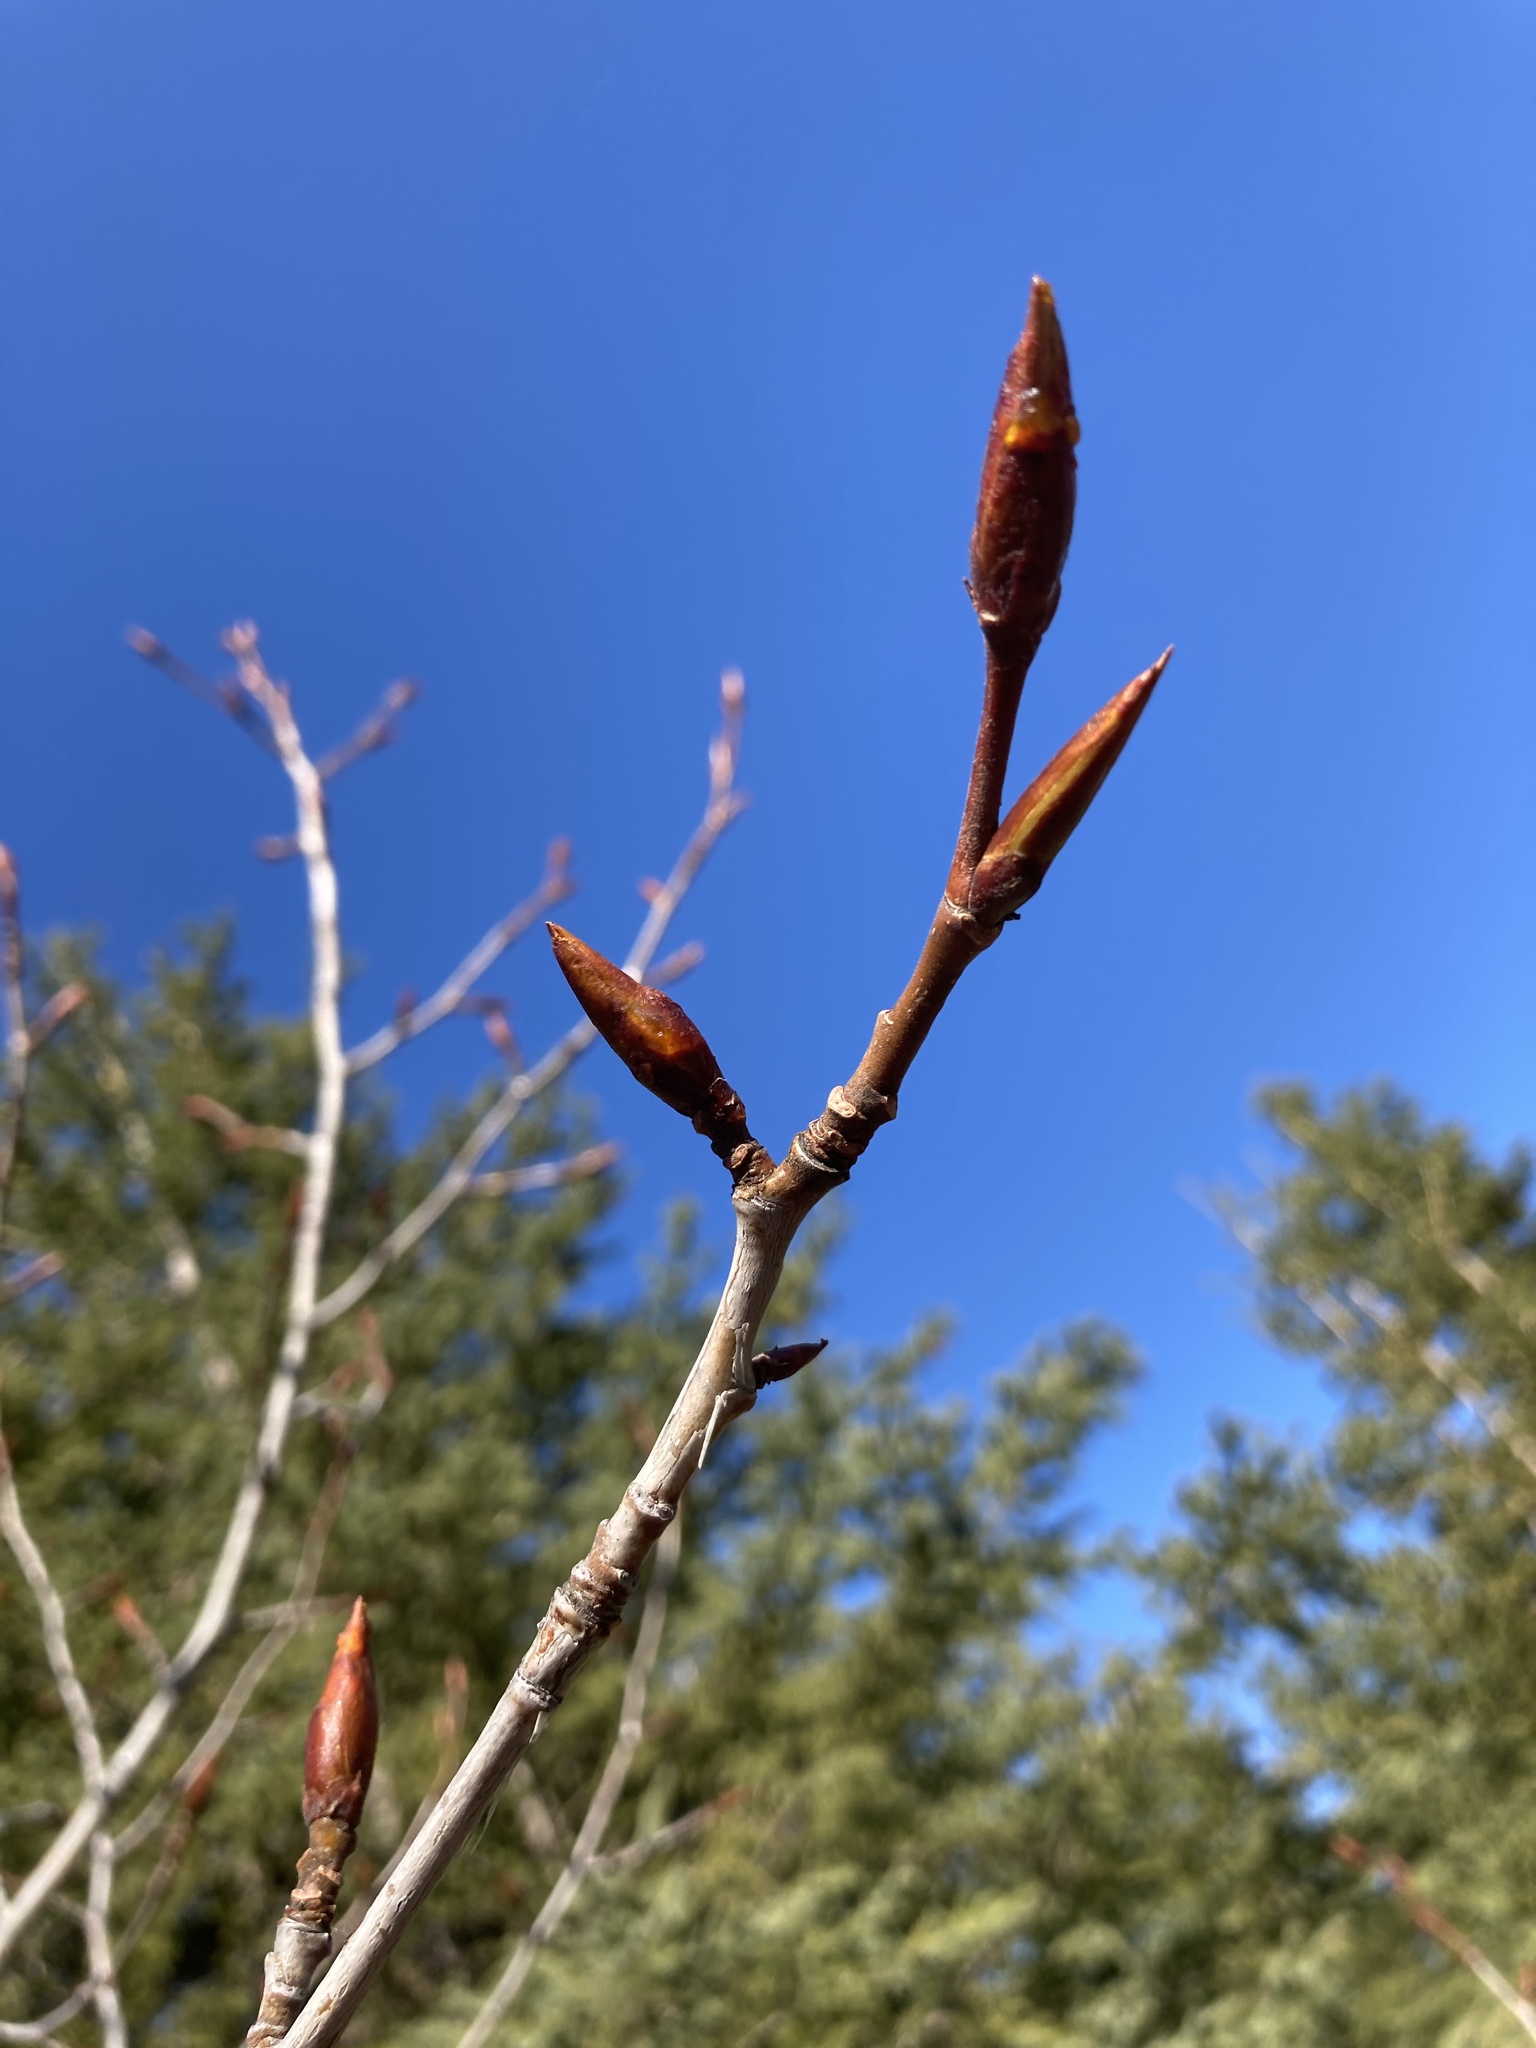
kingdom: Plantae
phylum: Tracheophyta
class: Magnoliopsida
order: Malpighiales
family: Salicaceae
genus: Populus
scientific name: Populus balsamifera
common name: Balsam poplar
